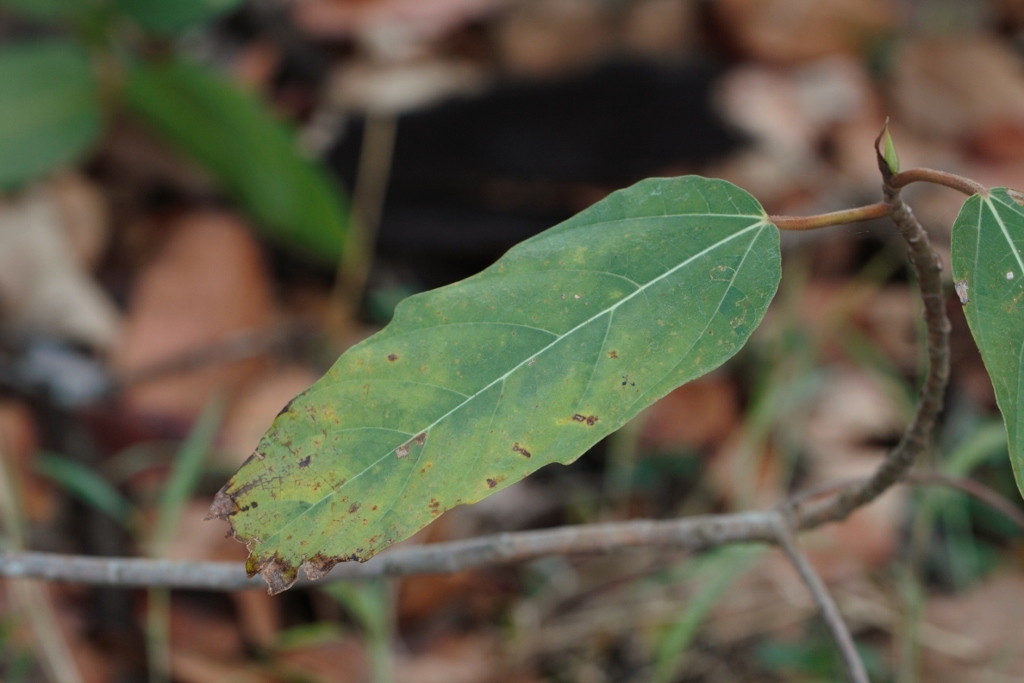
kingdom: Plantae
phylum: Tracheophyta
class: Magnoliopsida
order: Rosales
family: Moraceae
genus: Ficus
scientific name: Ficus sur
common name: Cape fig
